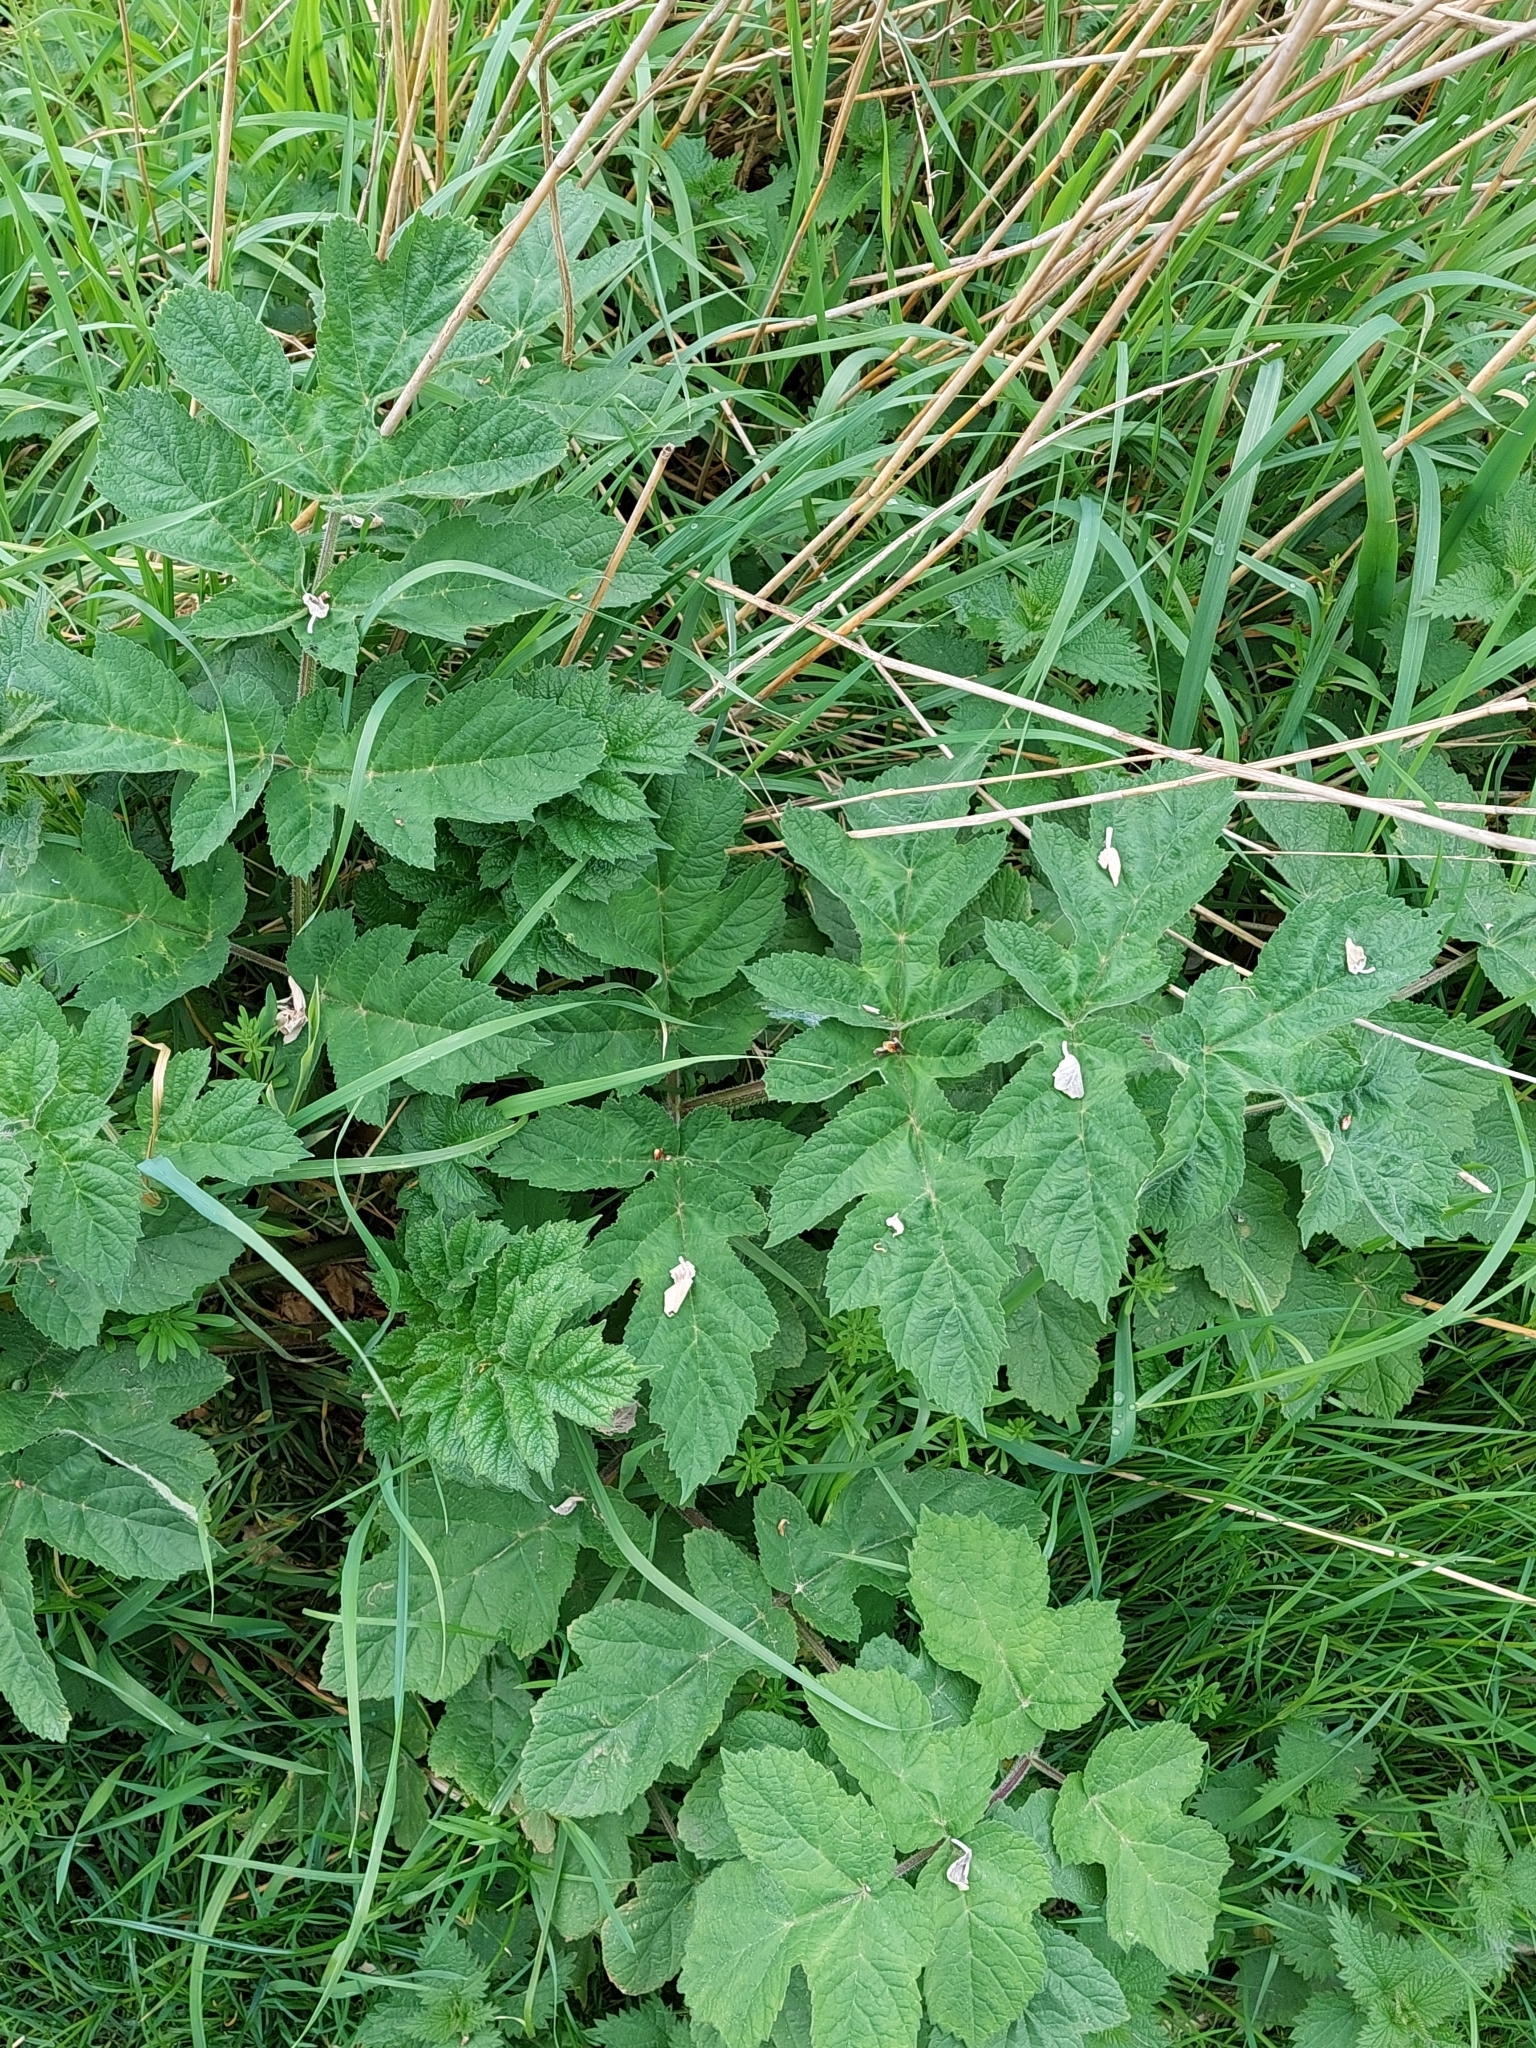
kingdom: Plantae
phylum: Tracheophyta
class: Magnoliopsida
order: Apiales
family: Apiaceae
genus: Heracleum
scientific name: Heracleum sphondylium
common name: Hogweed
